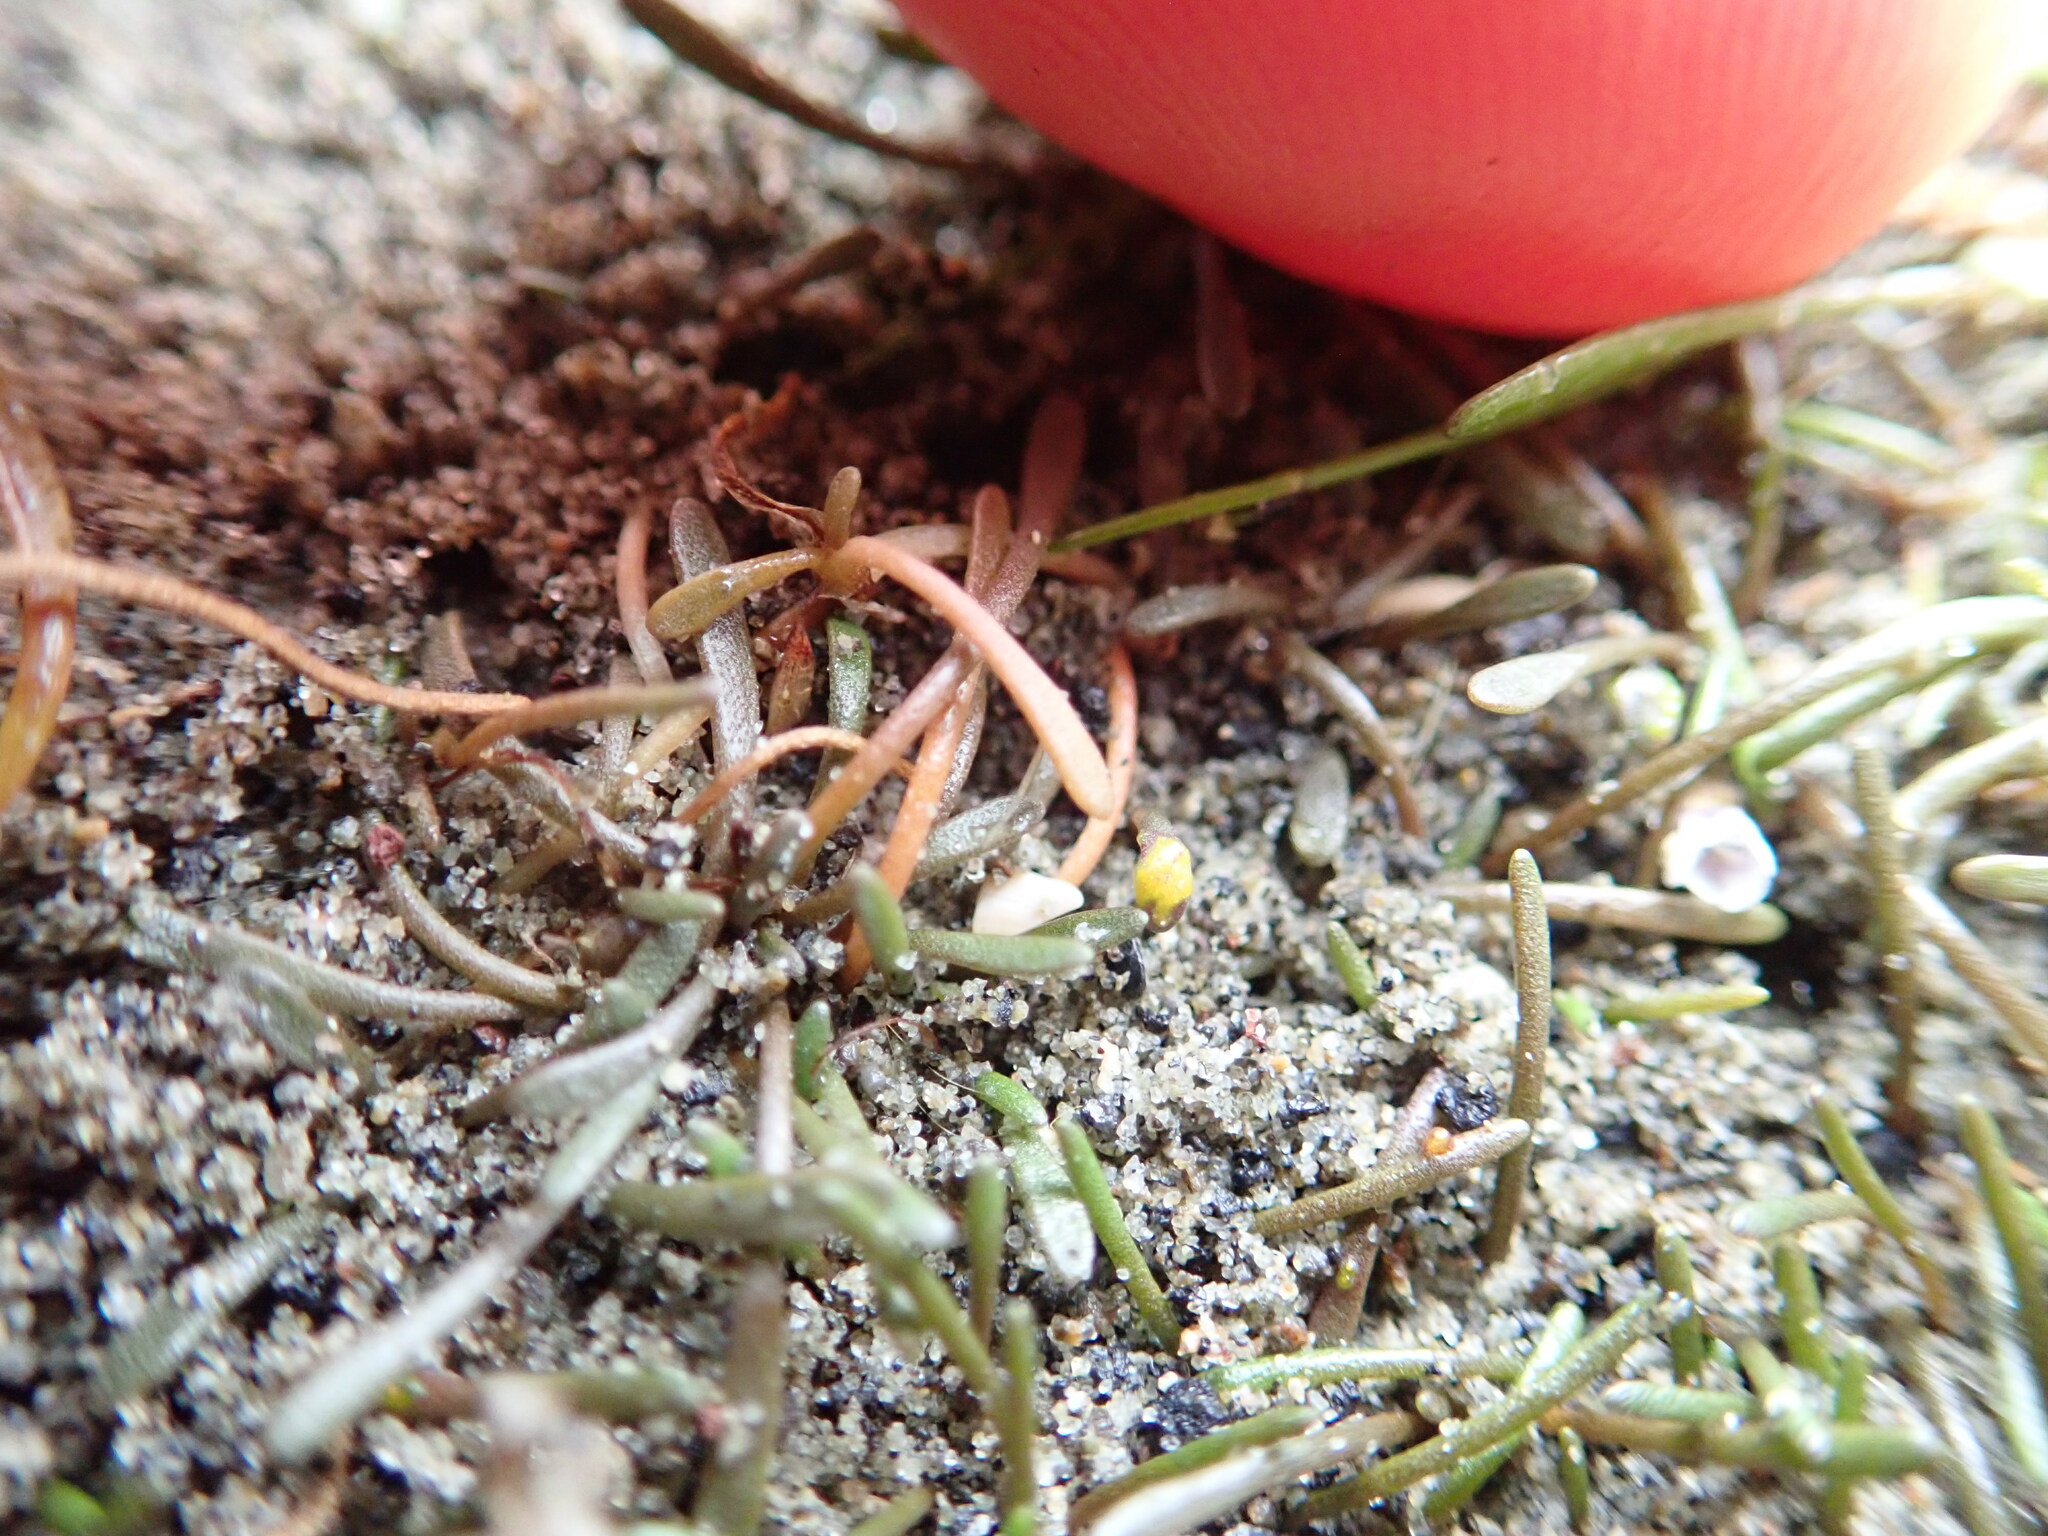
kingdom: Fungi
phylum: Chytridiomycota
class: Chytridiomycetes
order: Chytridiales
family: Synchytriaceae
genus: Synchytrium
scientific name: Synchytrium limosellae
